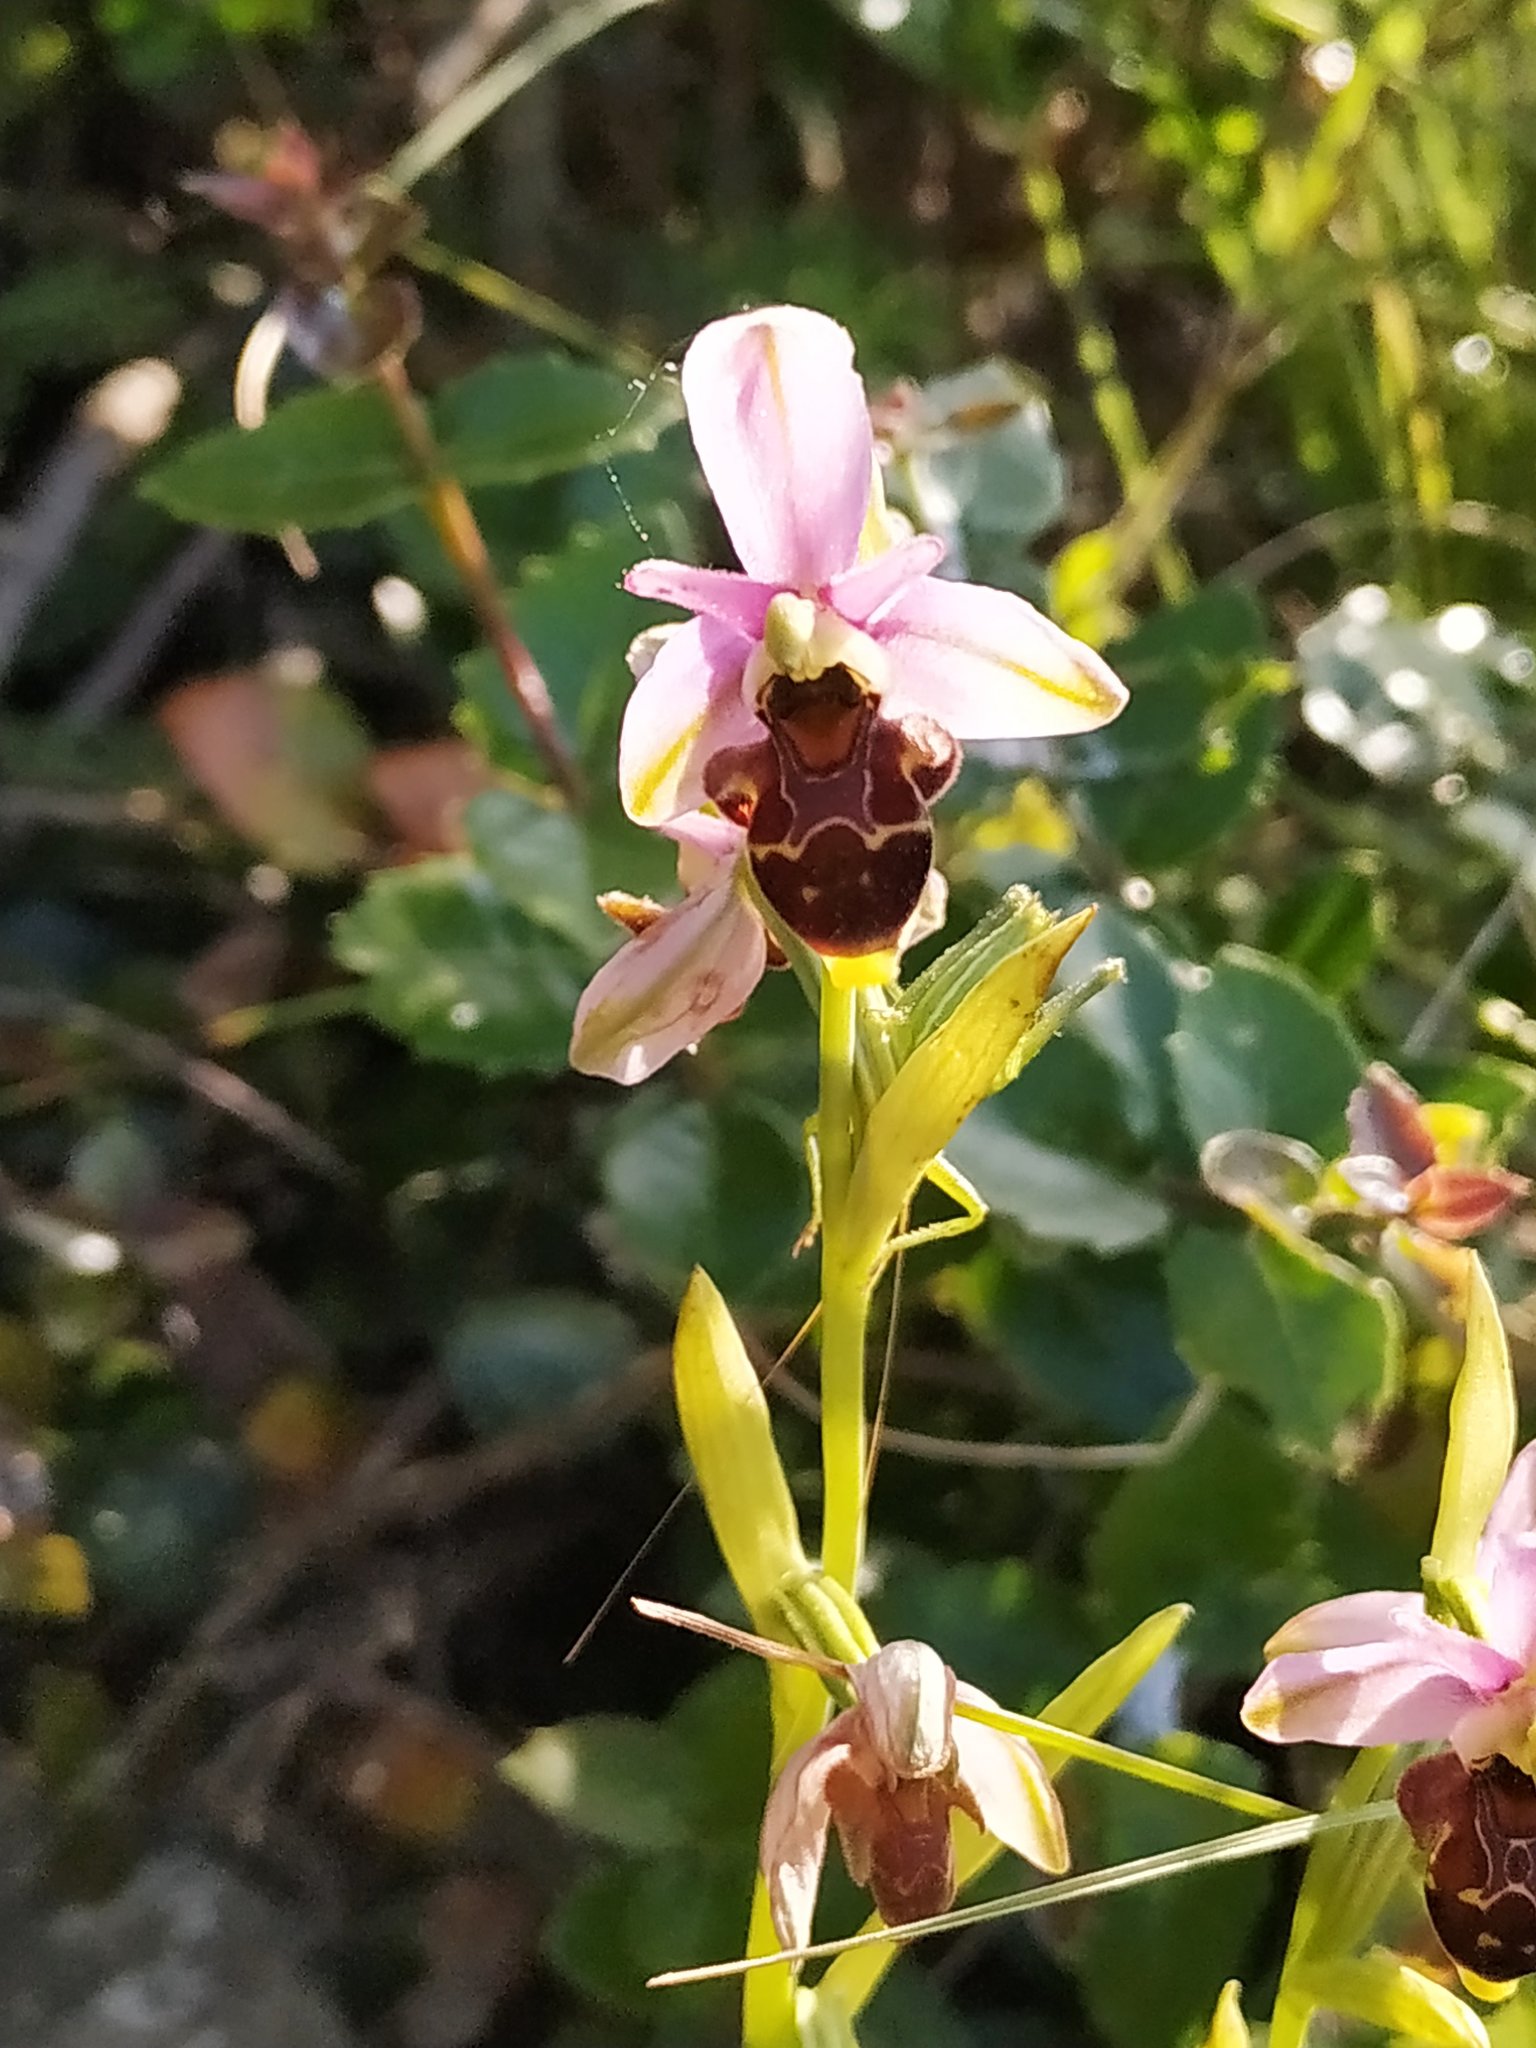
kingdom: Plantae
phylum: Tracheophyta
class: Liliopsida
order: Asparagales
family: Orchidaceae
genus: Ophrys
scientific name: Ophrys scolopax
